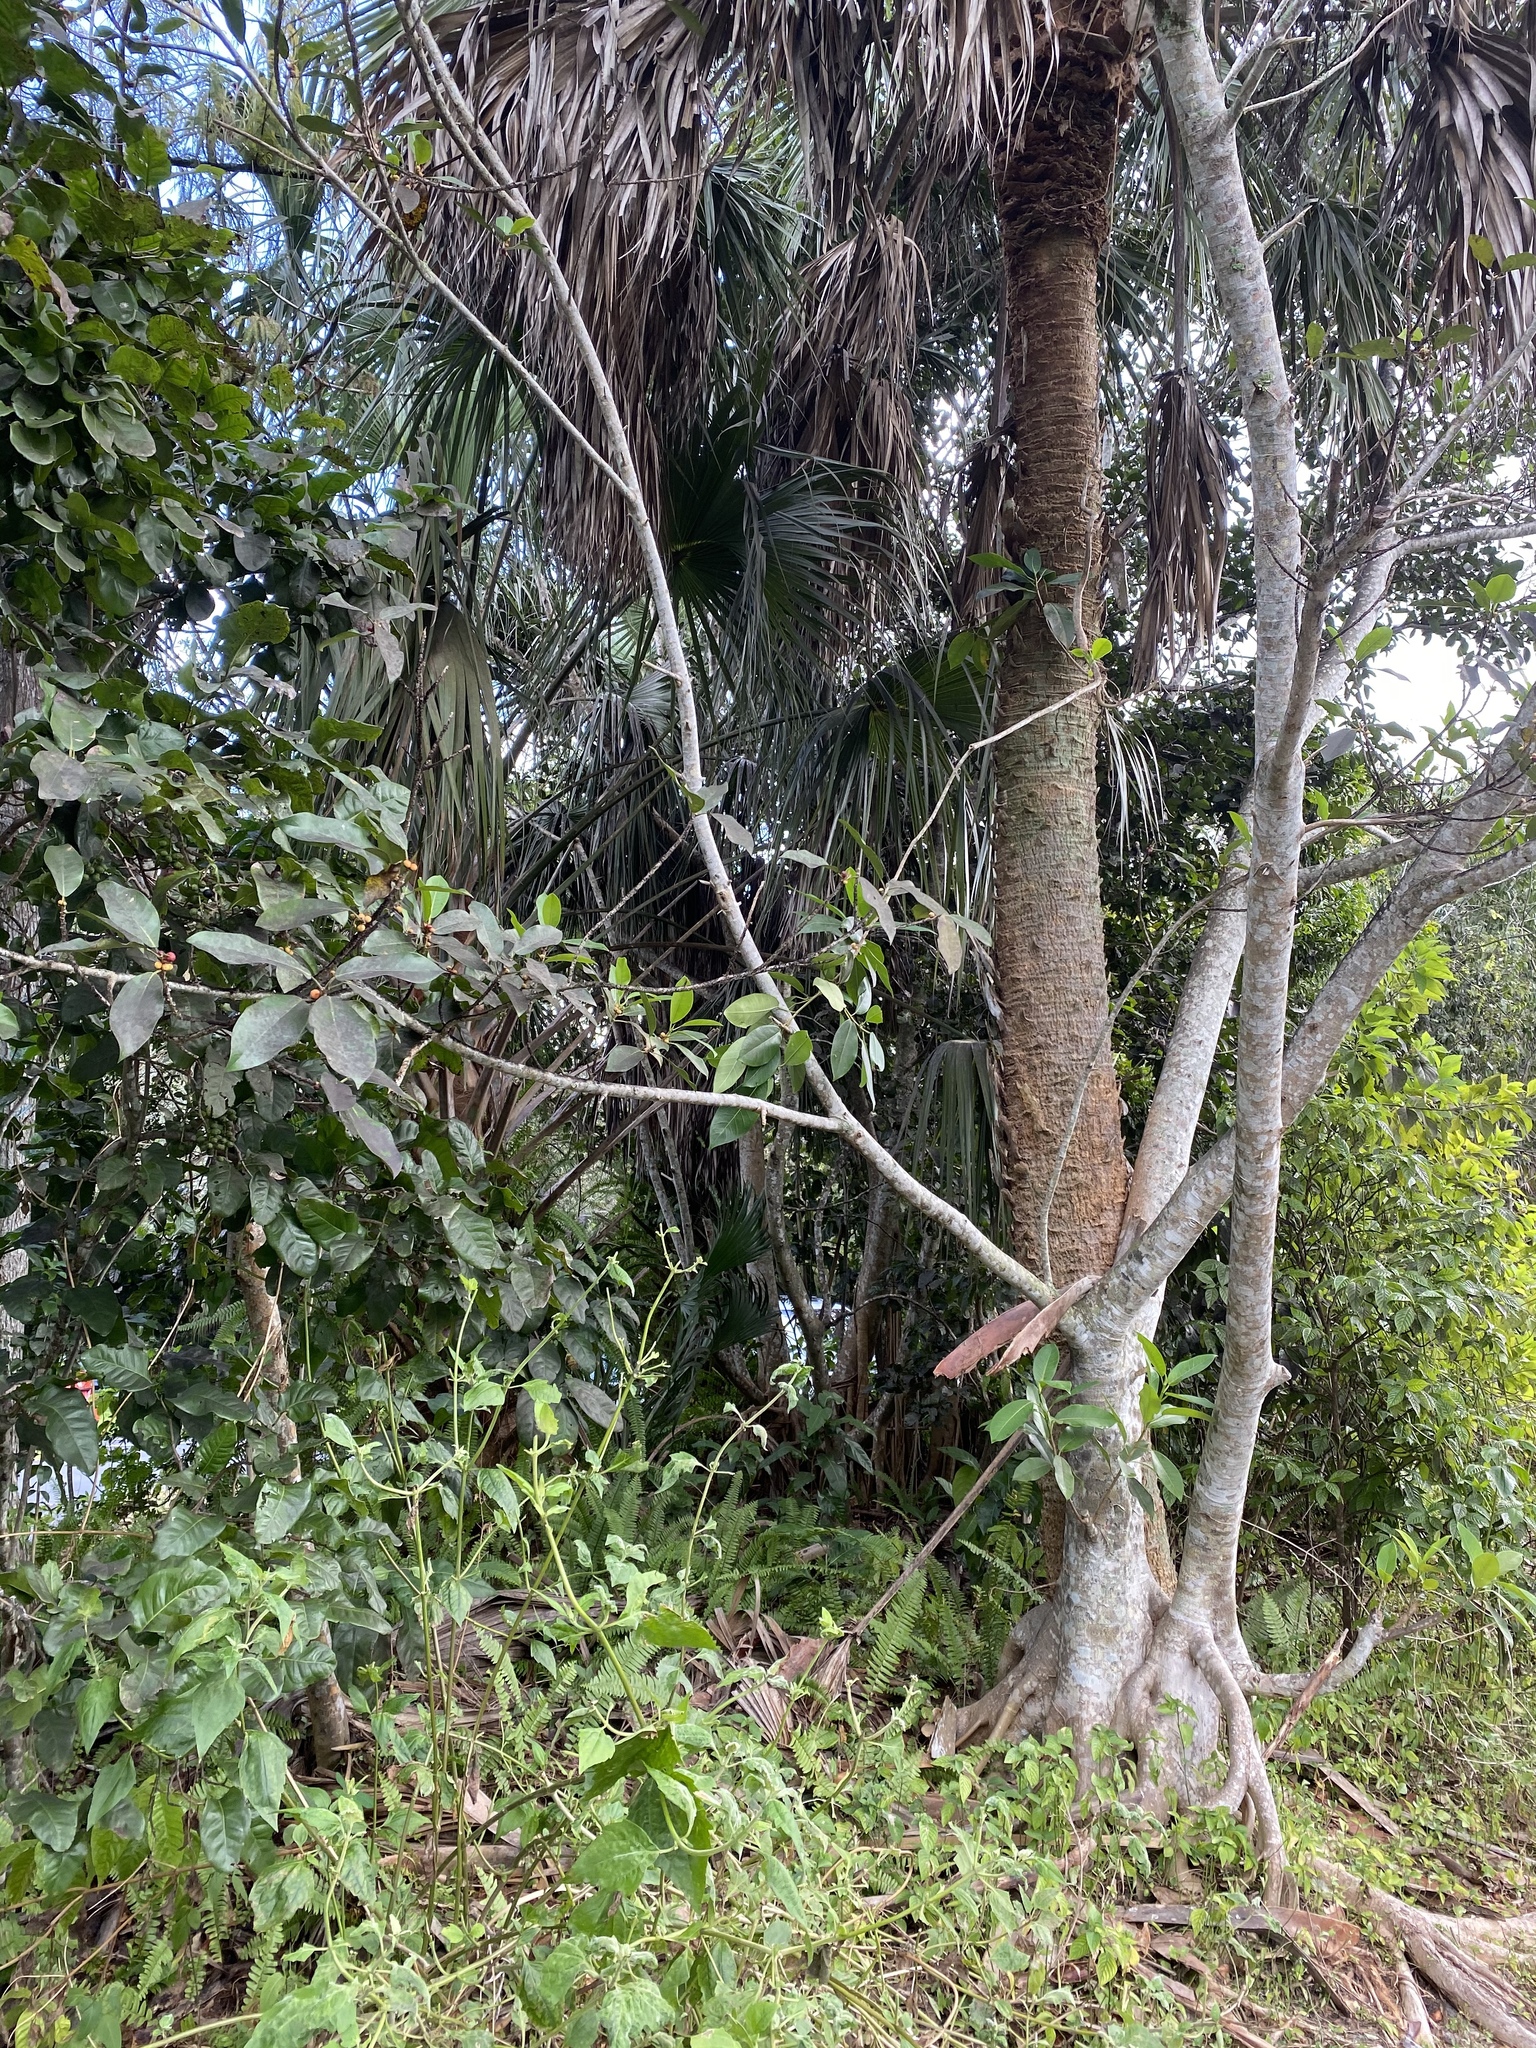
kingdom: Plantae
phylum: Tracheophyta
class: Magnoliopsida
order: Rosales
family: Moraceae
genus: Ficus
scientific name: Ficus aurea
